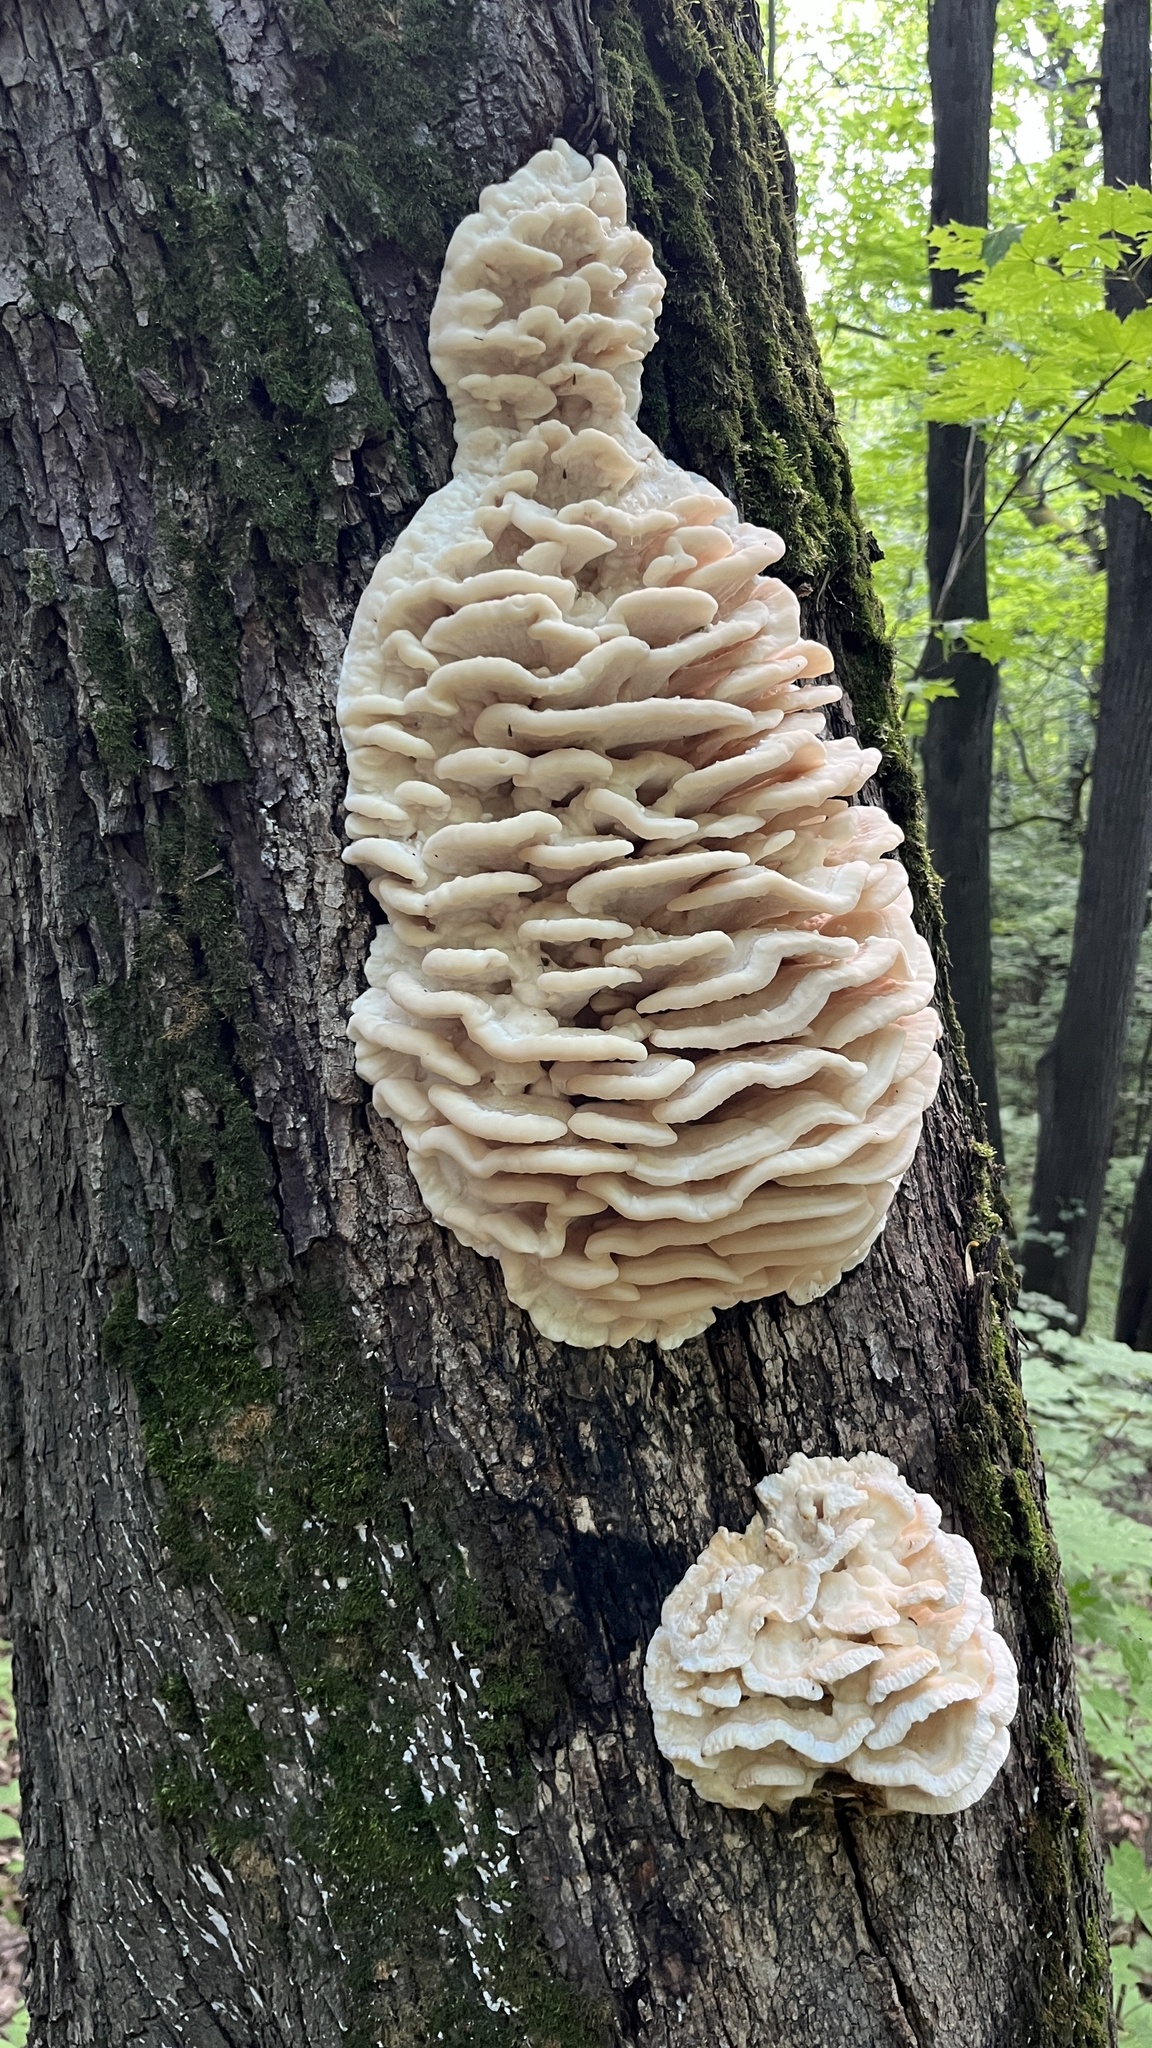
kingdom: Fungi
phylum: Basidiomycota
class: Agaricomycetes
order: Polyporales
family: Meruliaceae
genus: Climacodon
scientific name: Climacodon septentrionalis
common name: Northern tooth
